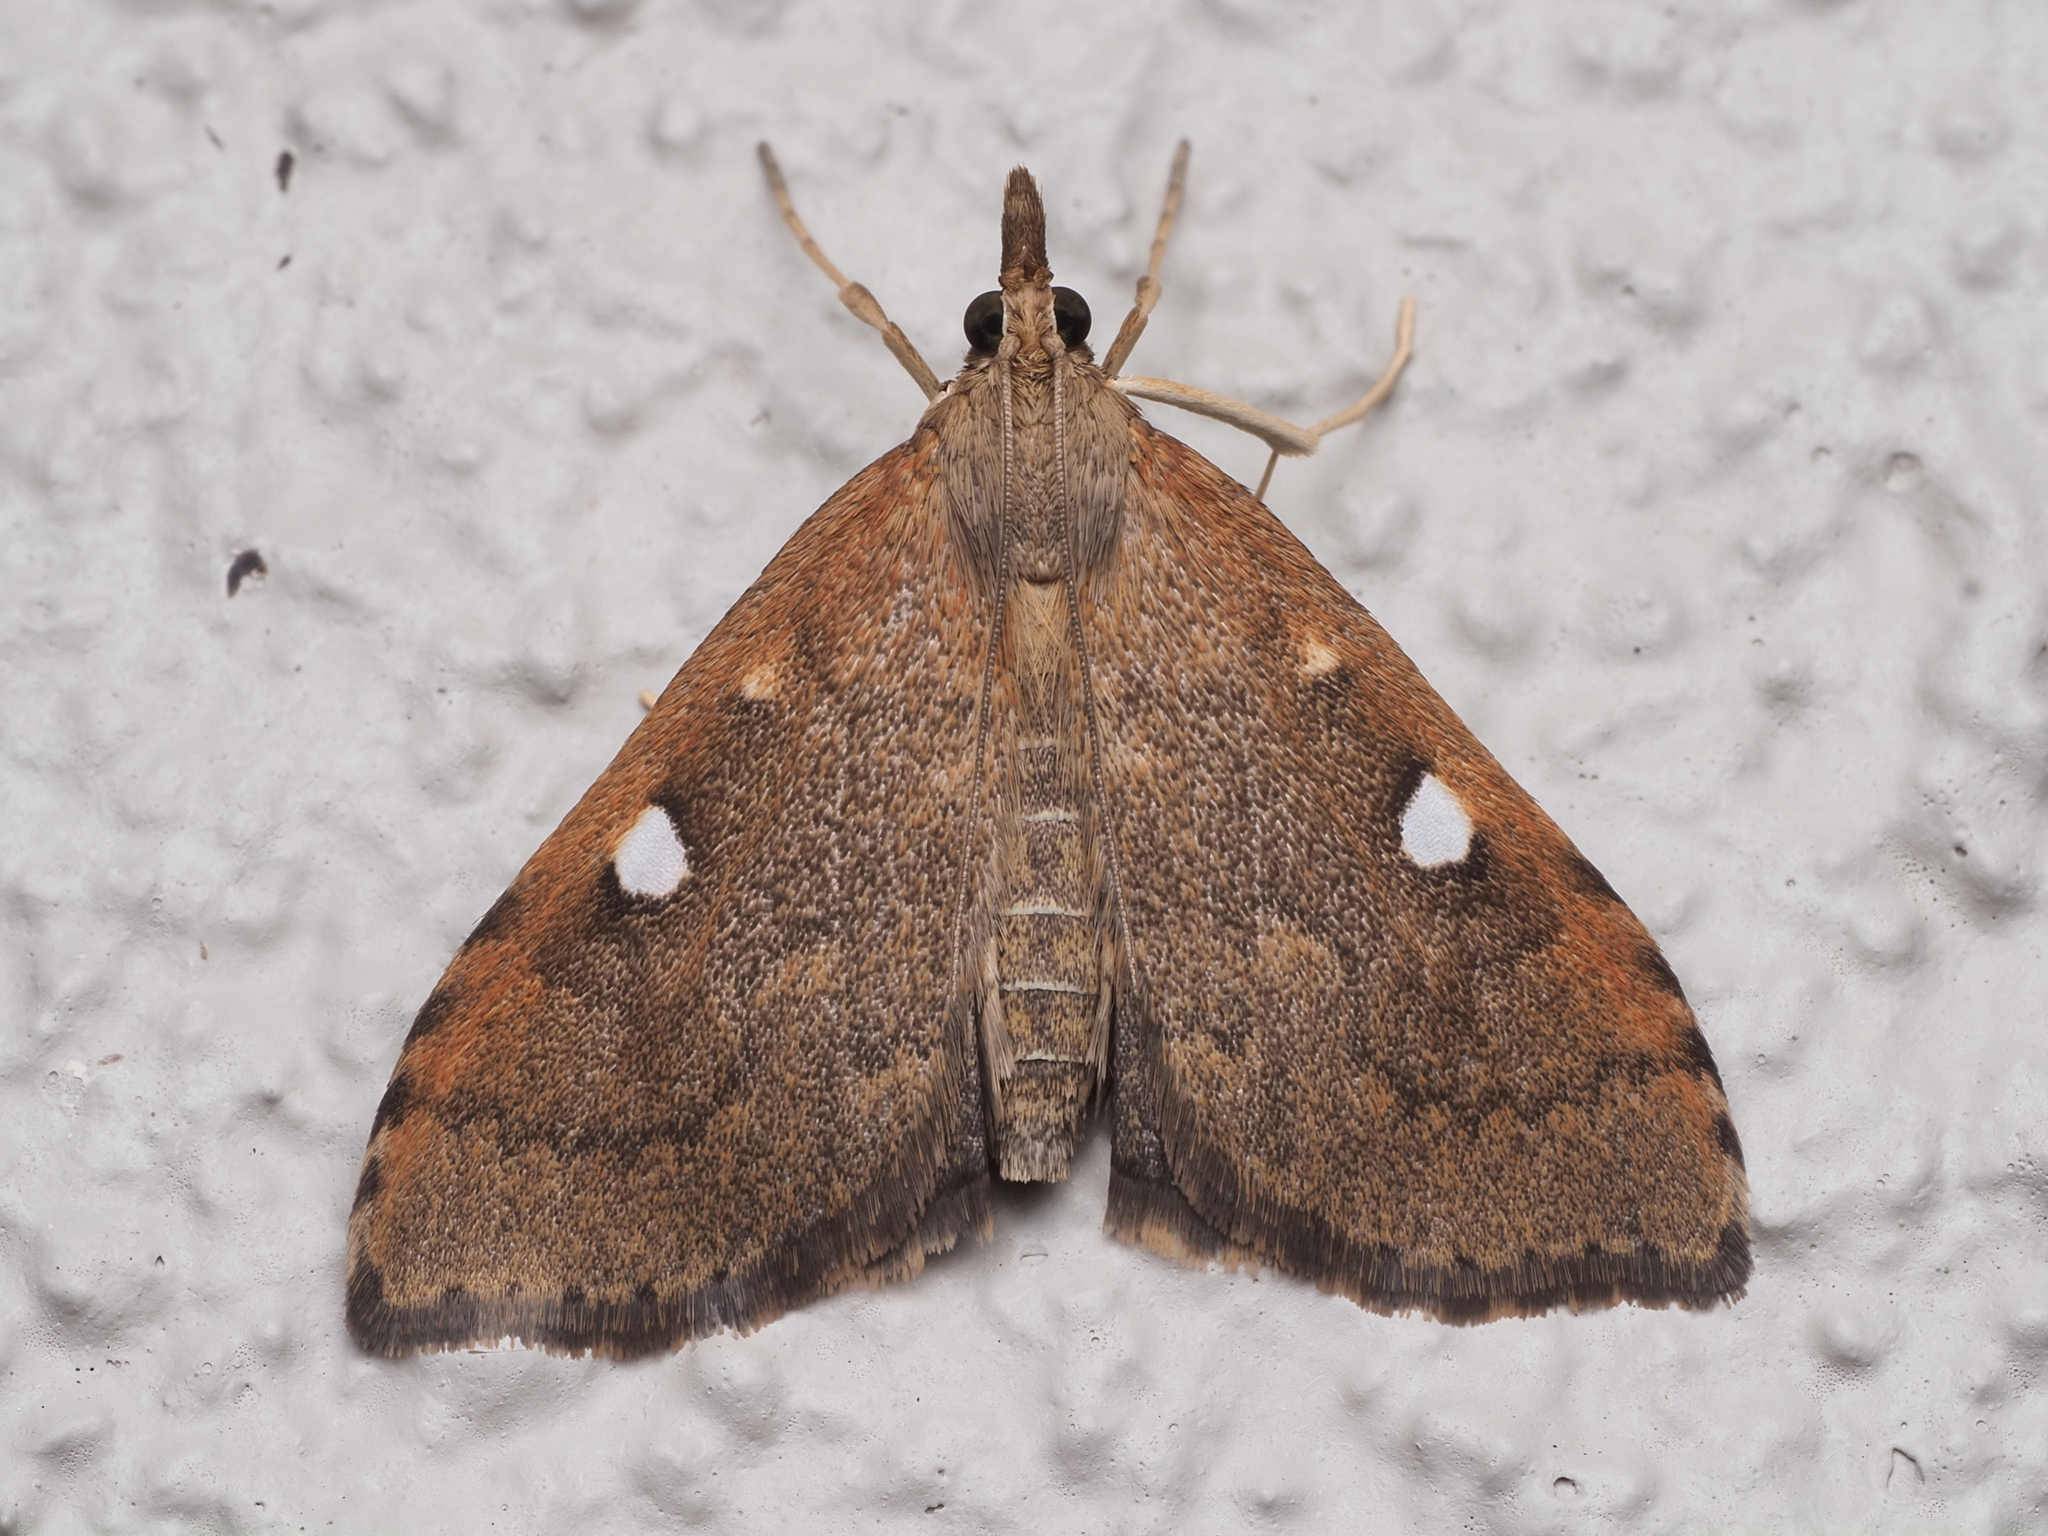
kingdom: Animalia
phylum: Arthropoda
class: Insecta
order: Lepidoptera
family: Crambidae
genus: Udea
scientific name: Udea Mnesictena marmarina
